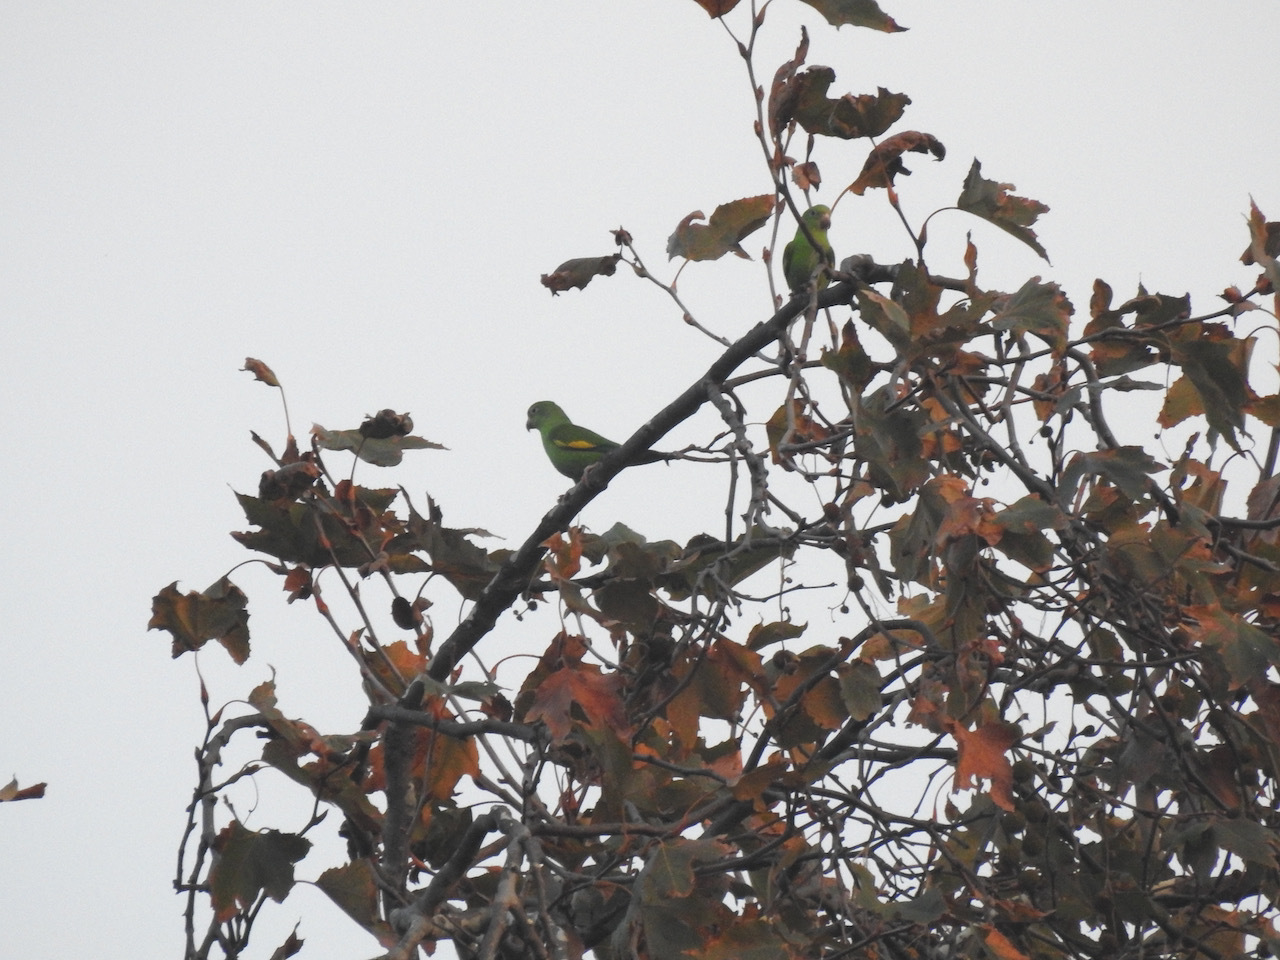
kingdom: Animalia
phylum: Chordata
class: Aves
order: Psittaciformes
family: Psittacidae
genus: Brotogeris
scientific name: Brotogeris chiriri
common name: Yellow-chevroned parakeet
